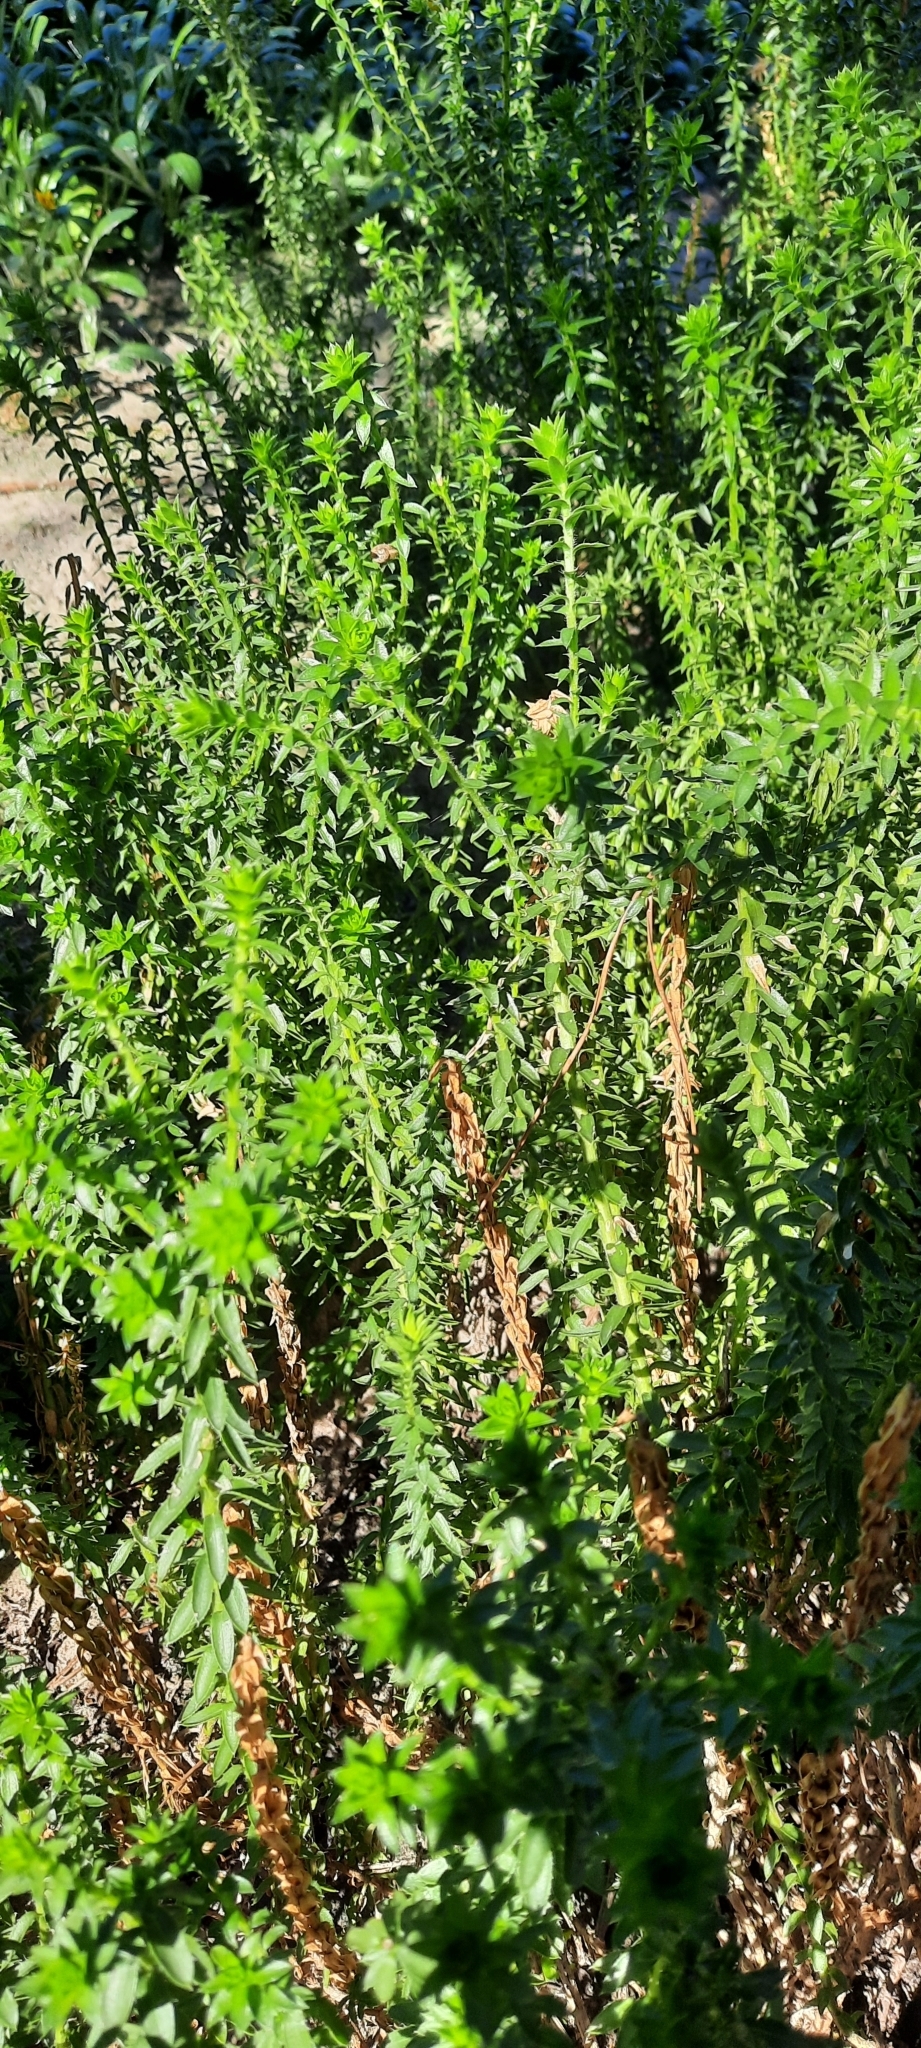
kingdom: Plantae
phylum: Tracheophyta
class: Magnoliopsida
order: Asterales
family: Asteraceae
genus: Felicia
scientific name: Felicia echinata
